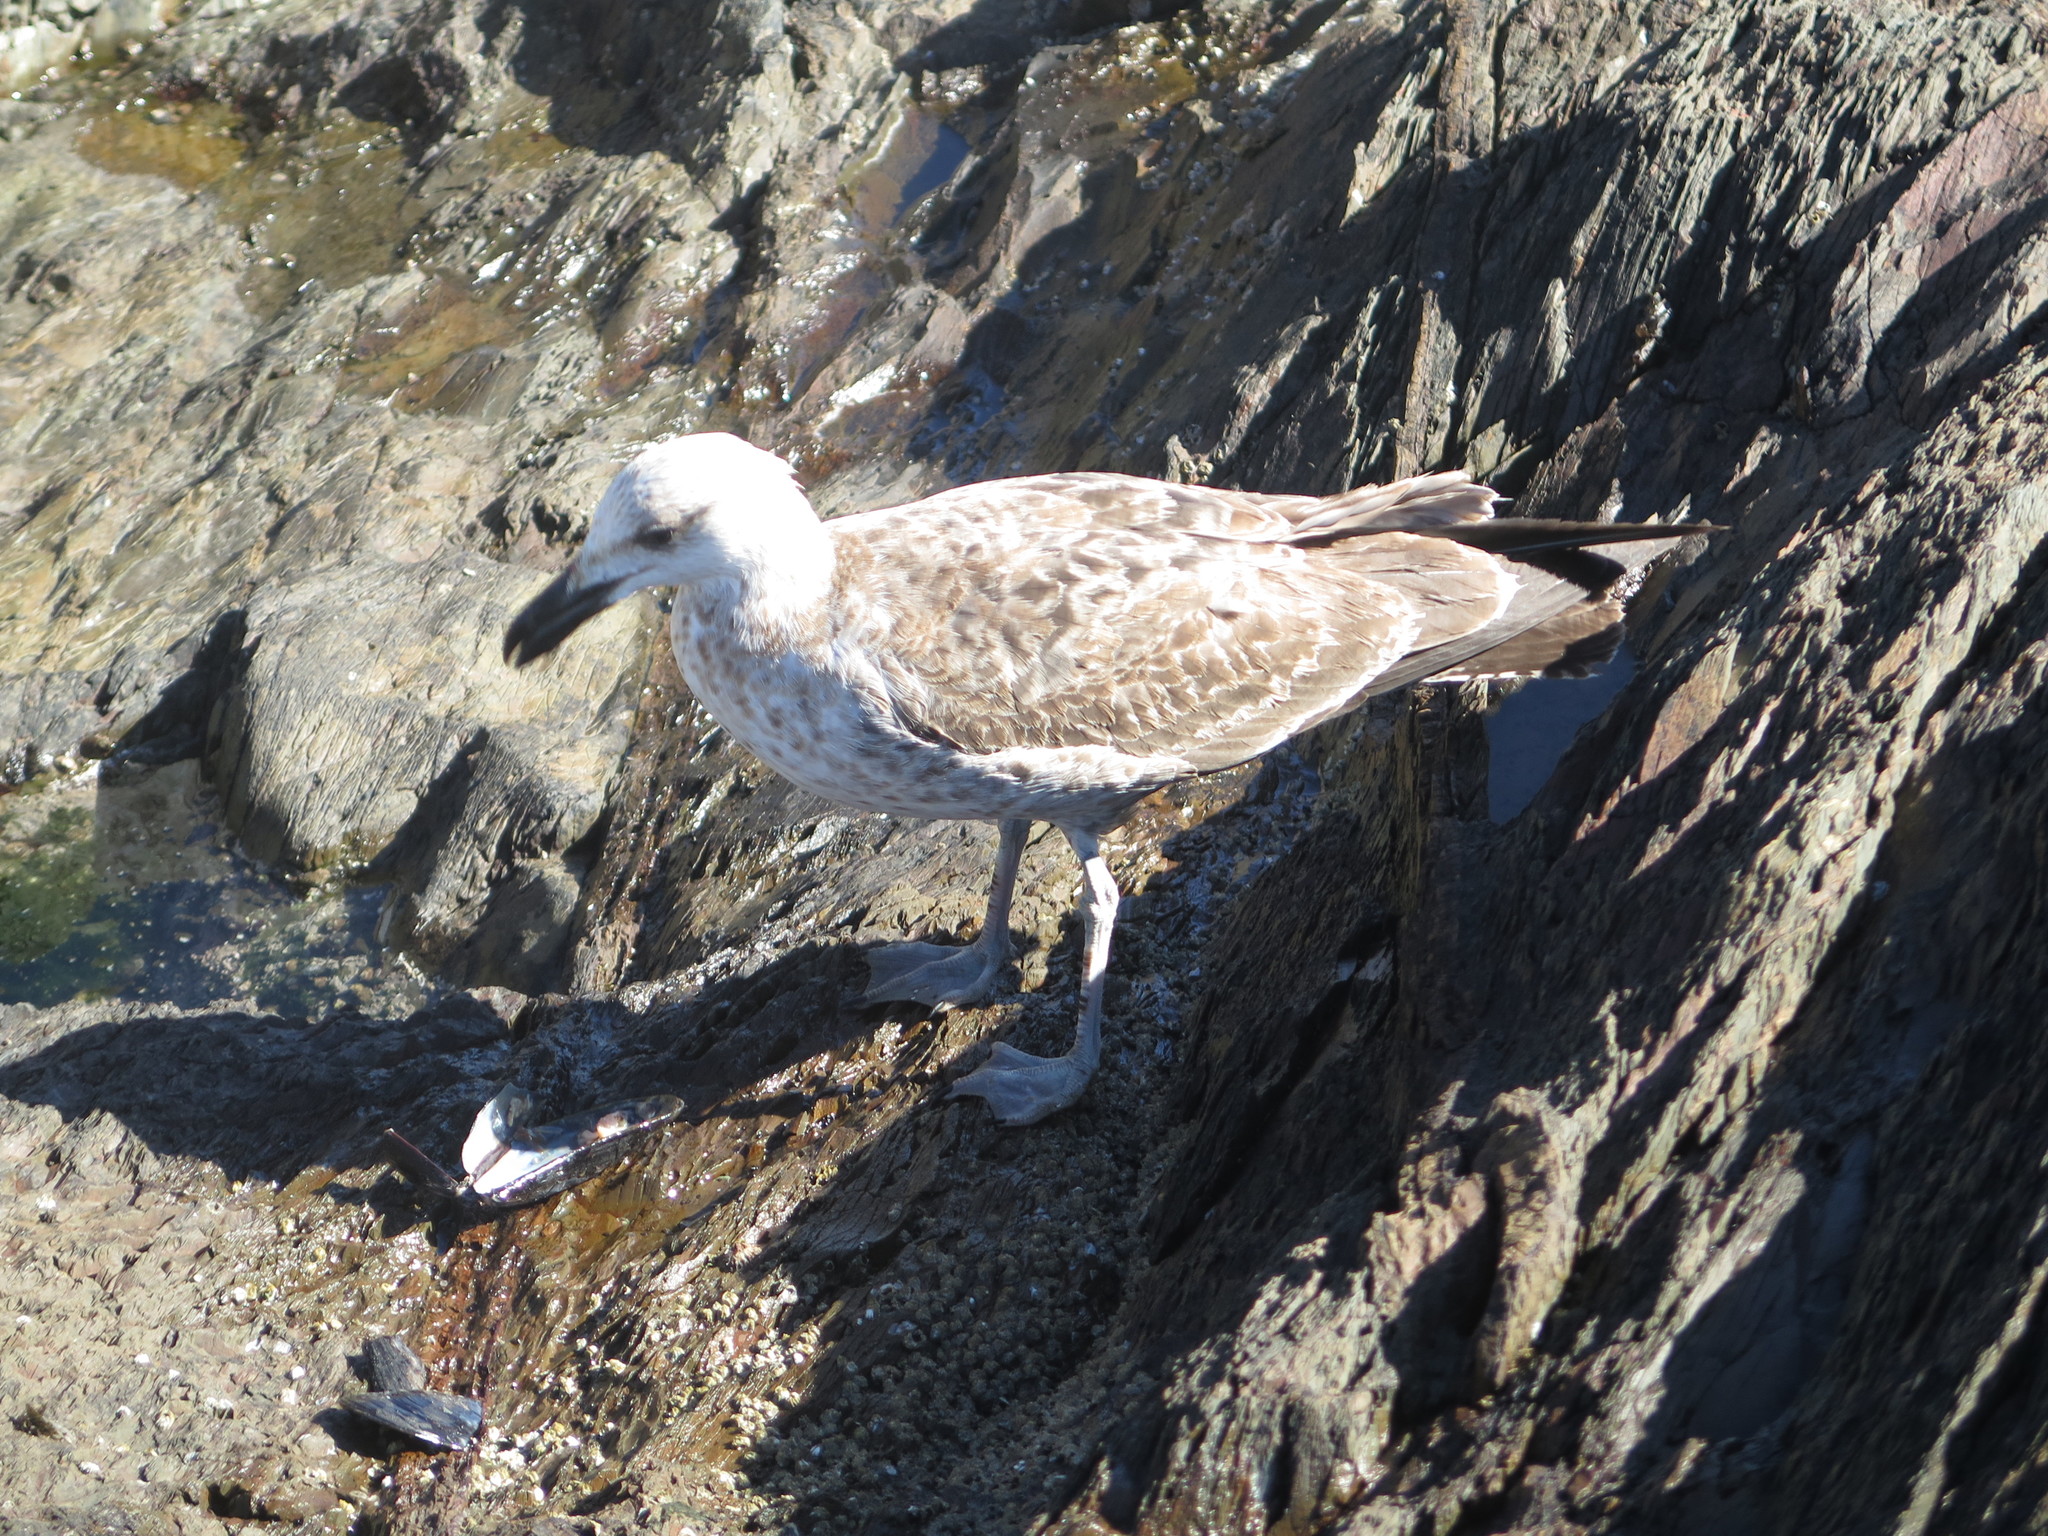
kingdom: Animalia
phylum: Chordata
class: Aves
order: Charadriiformes
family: Laridae
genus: Larus
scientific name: Larus dominicanus
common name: Kelp gull
